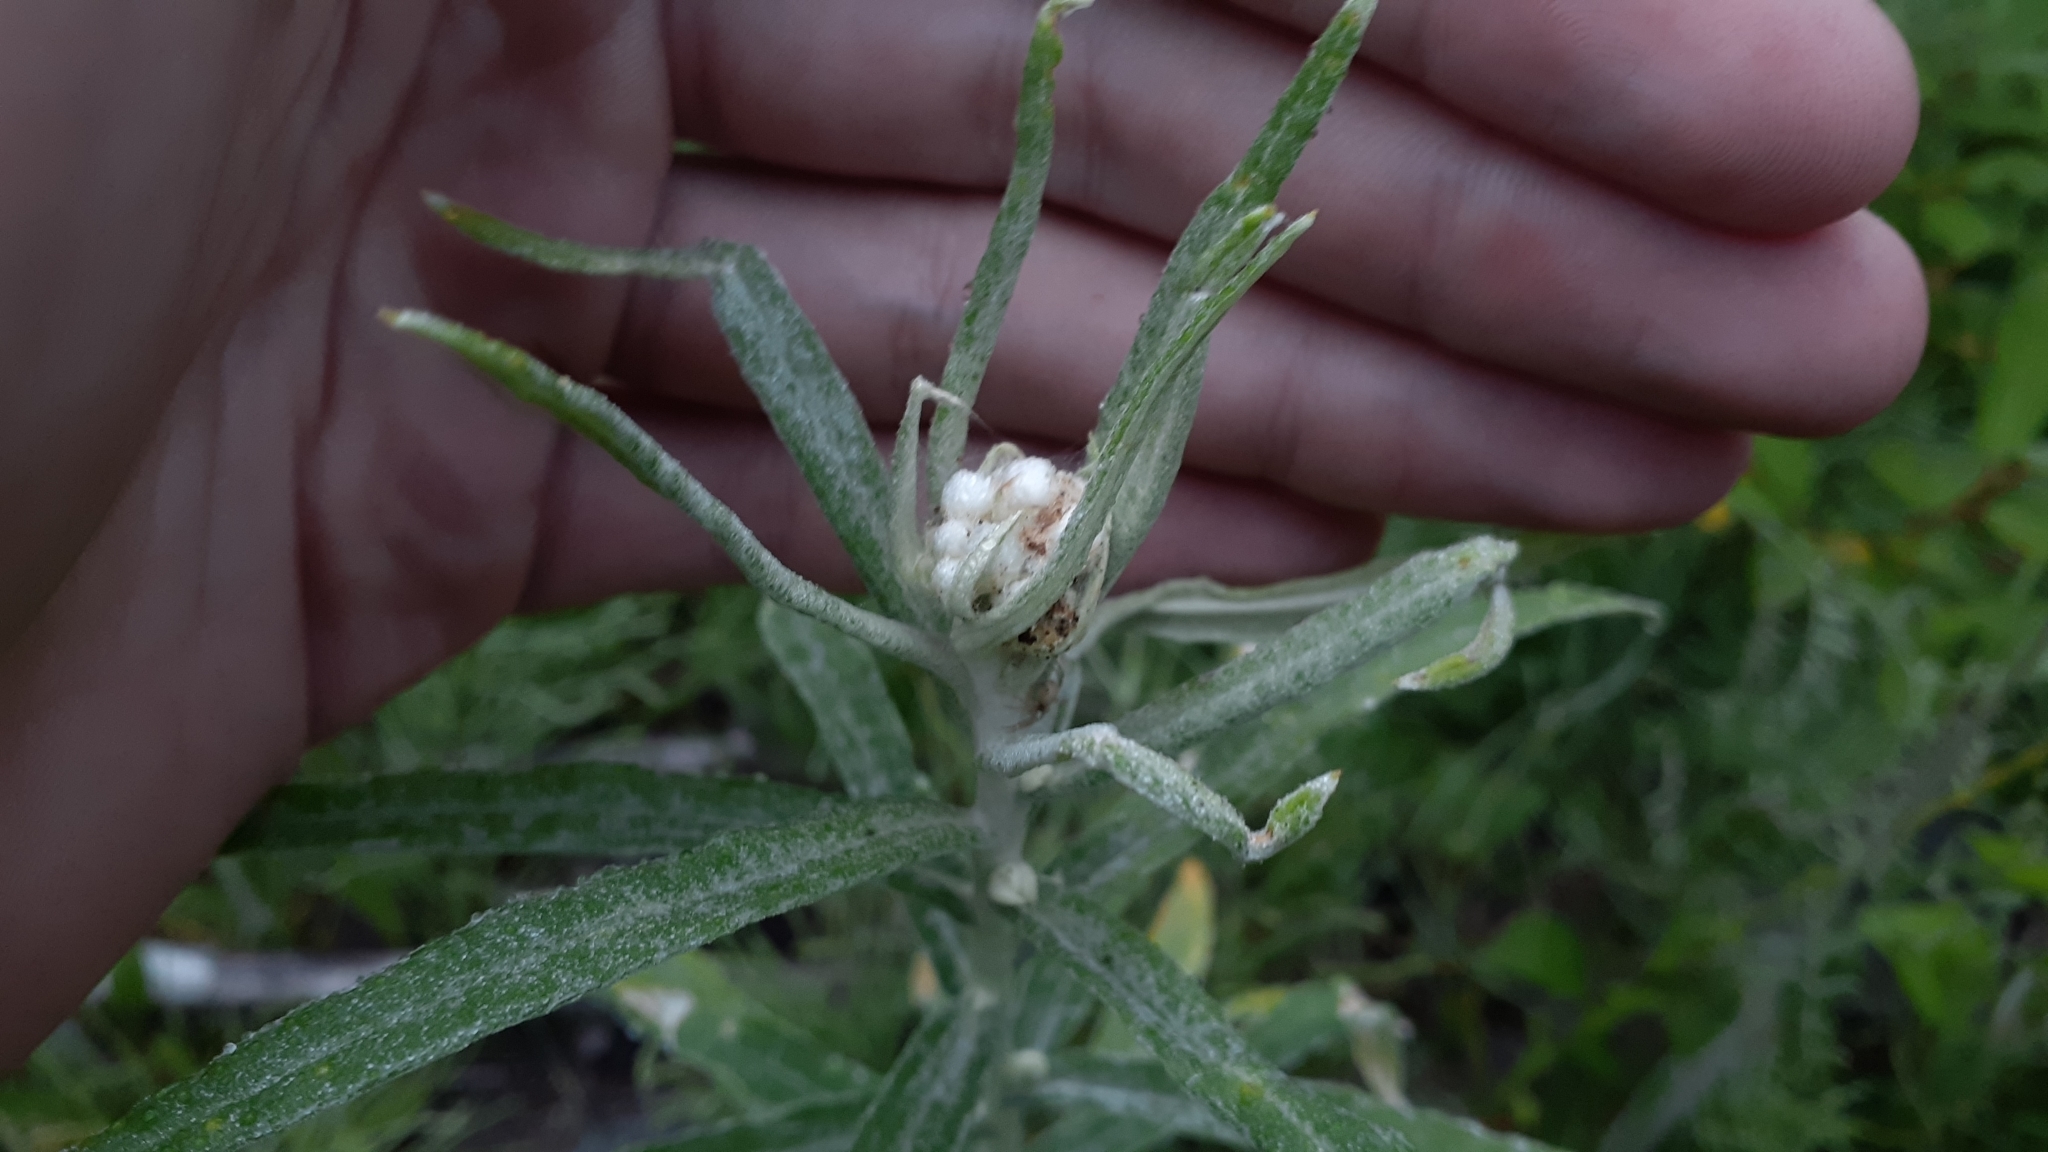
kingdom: Plantae
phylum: Tracheophyta
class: Magnoliopsida
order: Asterales
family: Asteraceae
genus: Anaphalis
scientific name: Anaphalis margaritacea
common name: Pearly everlasting
